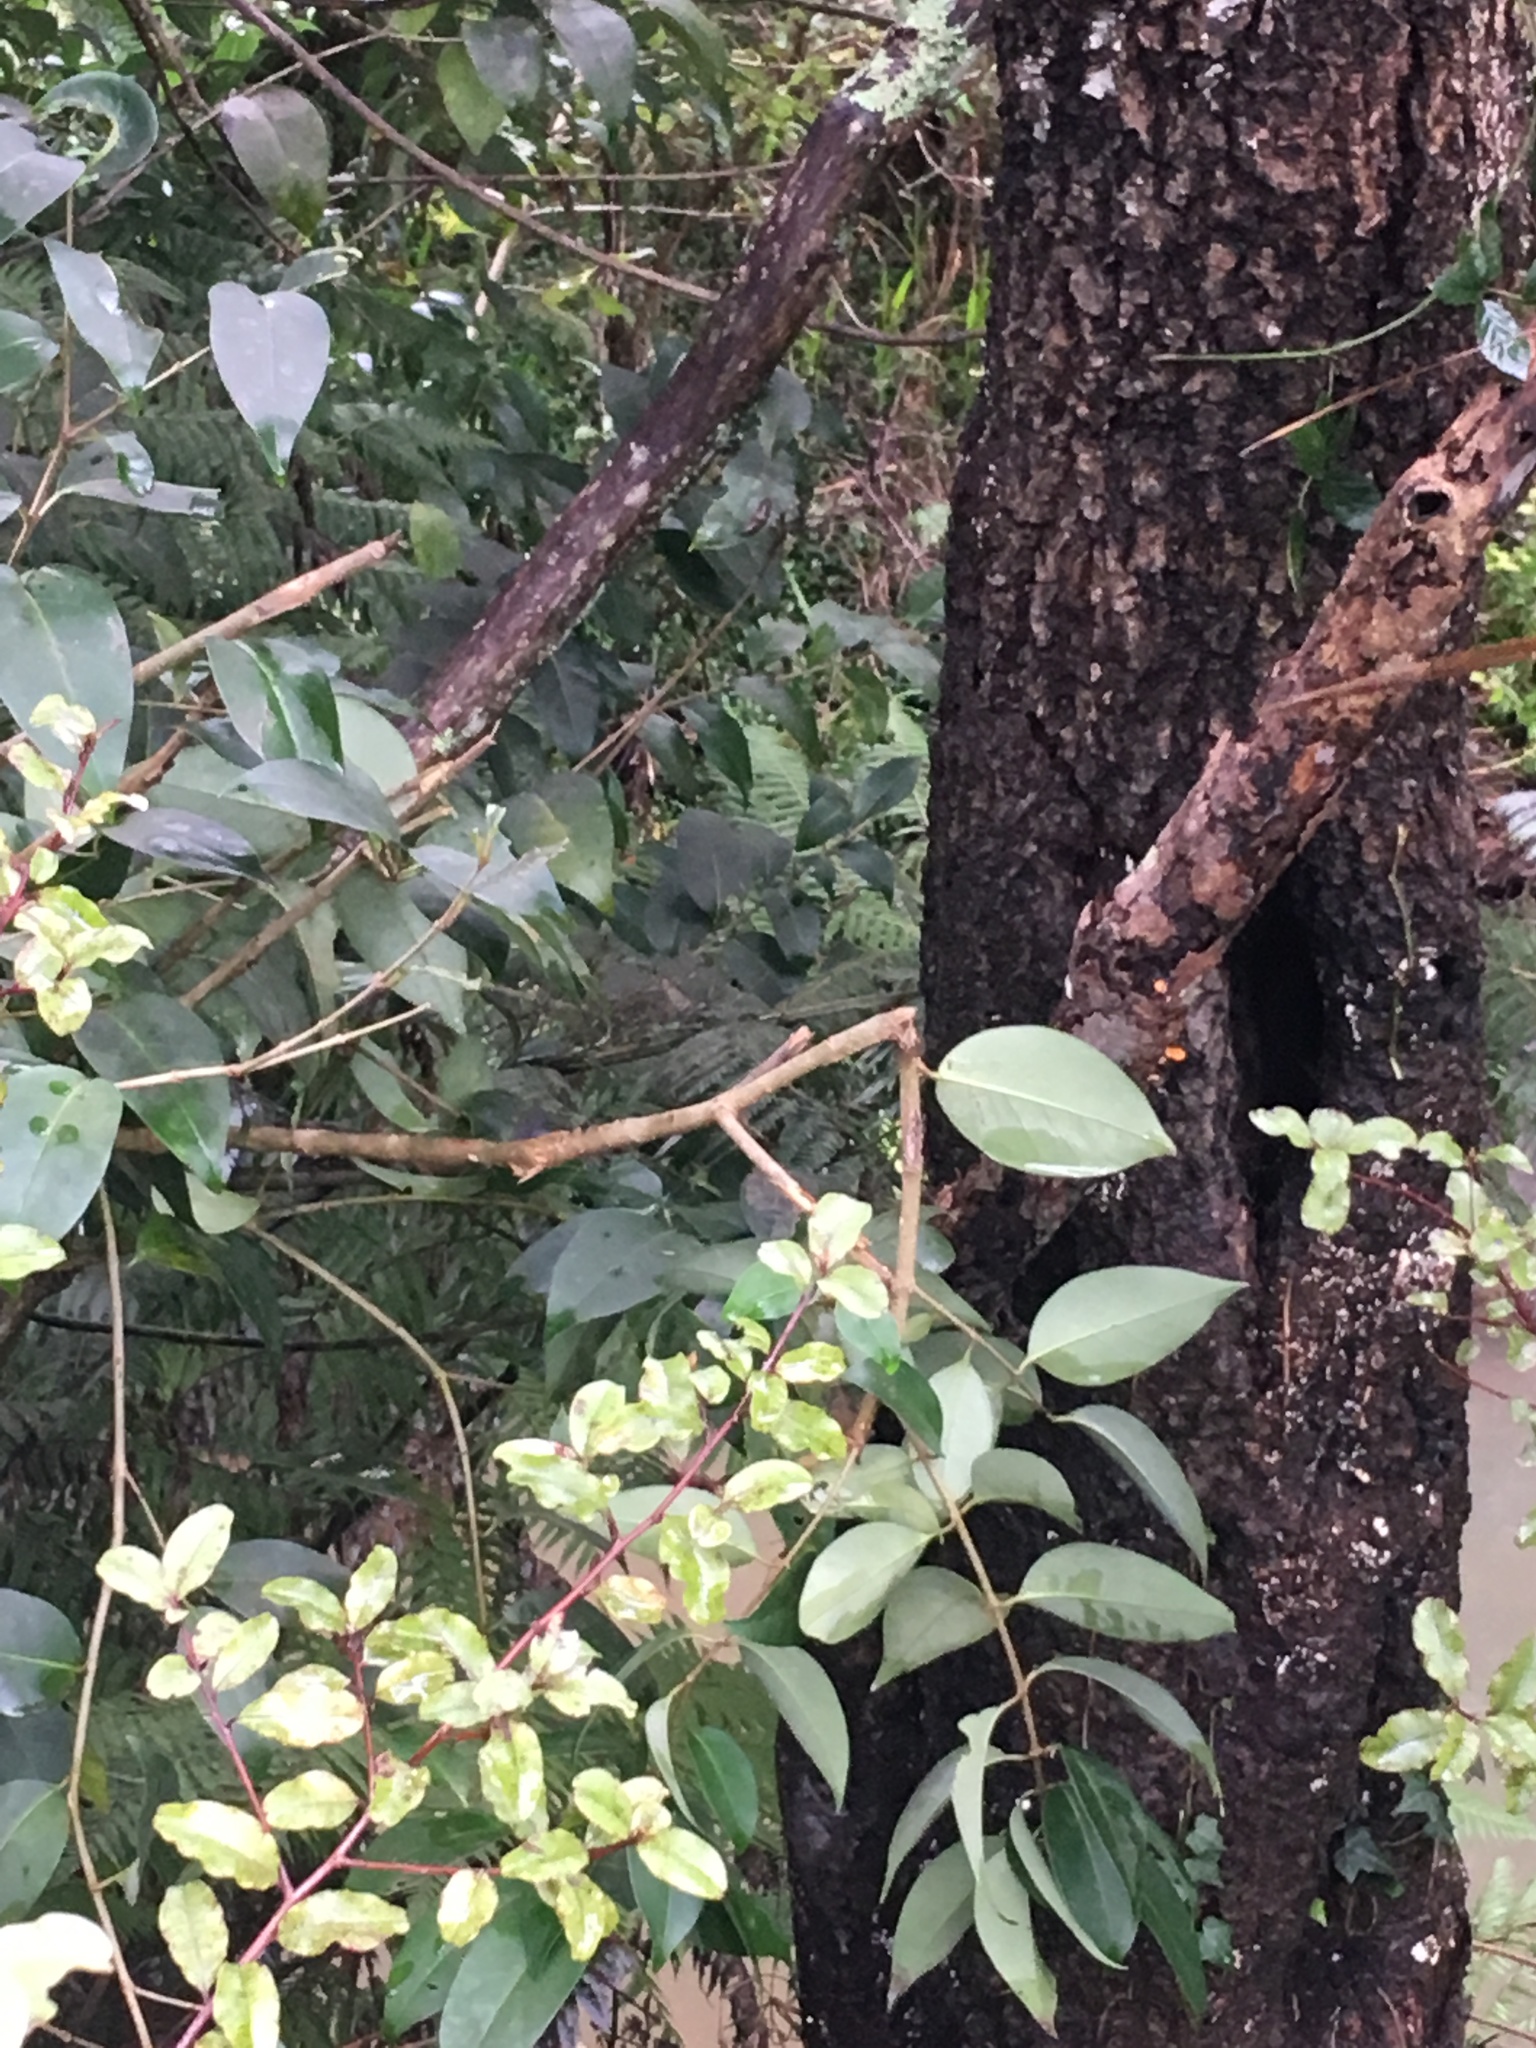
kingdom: Plantae
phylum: Tracheophyta
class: Magnoliopsida
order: Lamiales
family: Oleaceae
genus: Ligustrum
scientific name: Ligustrum lucidum
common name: Glossy privet
